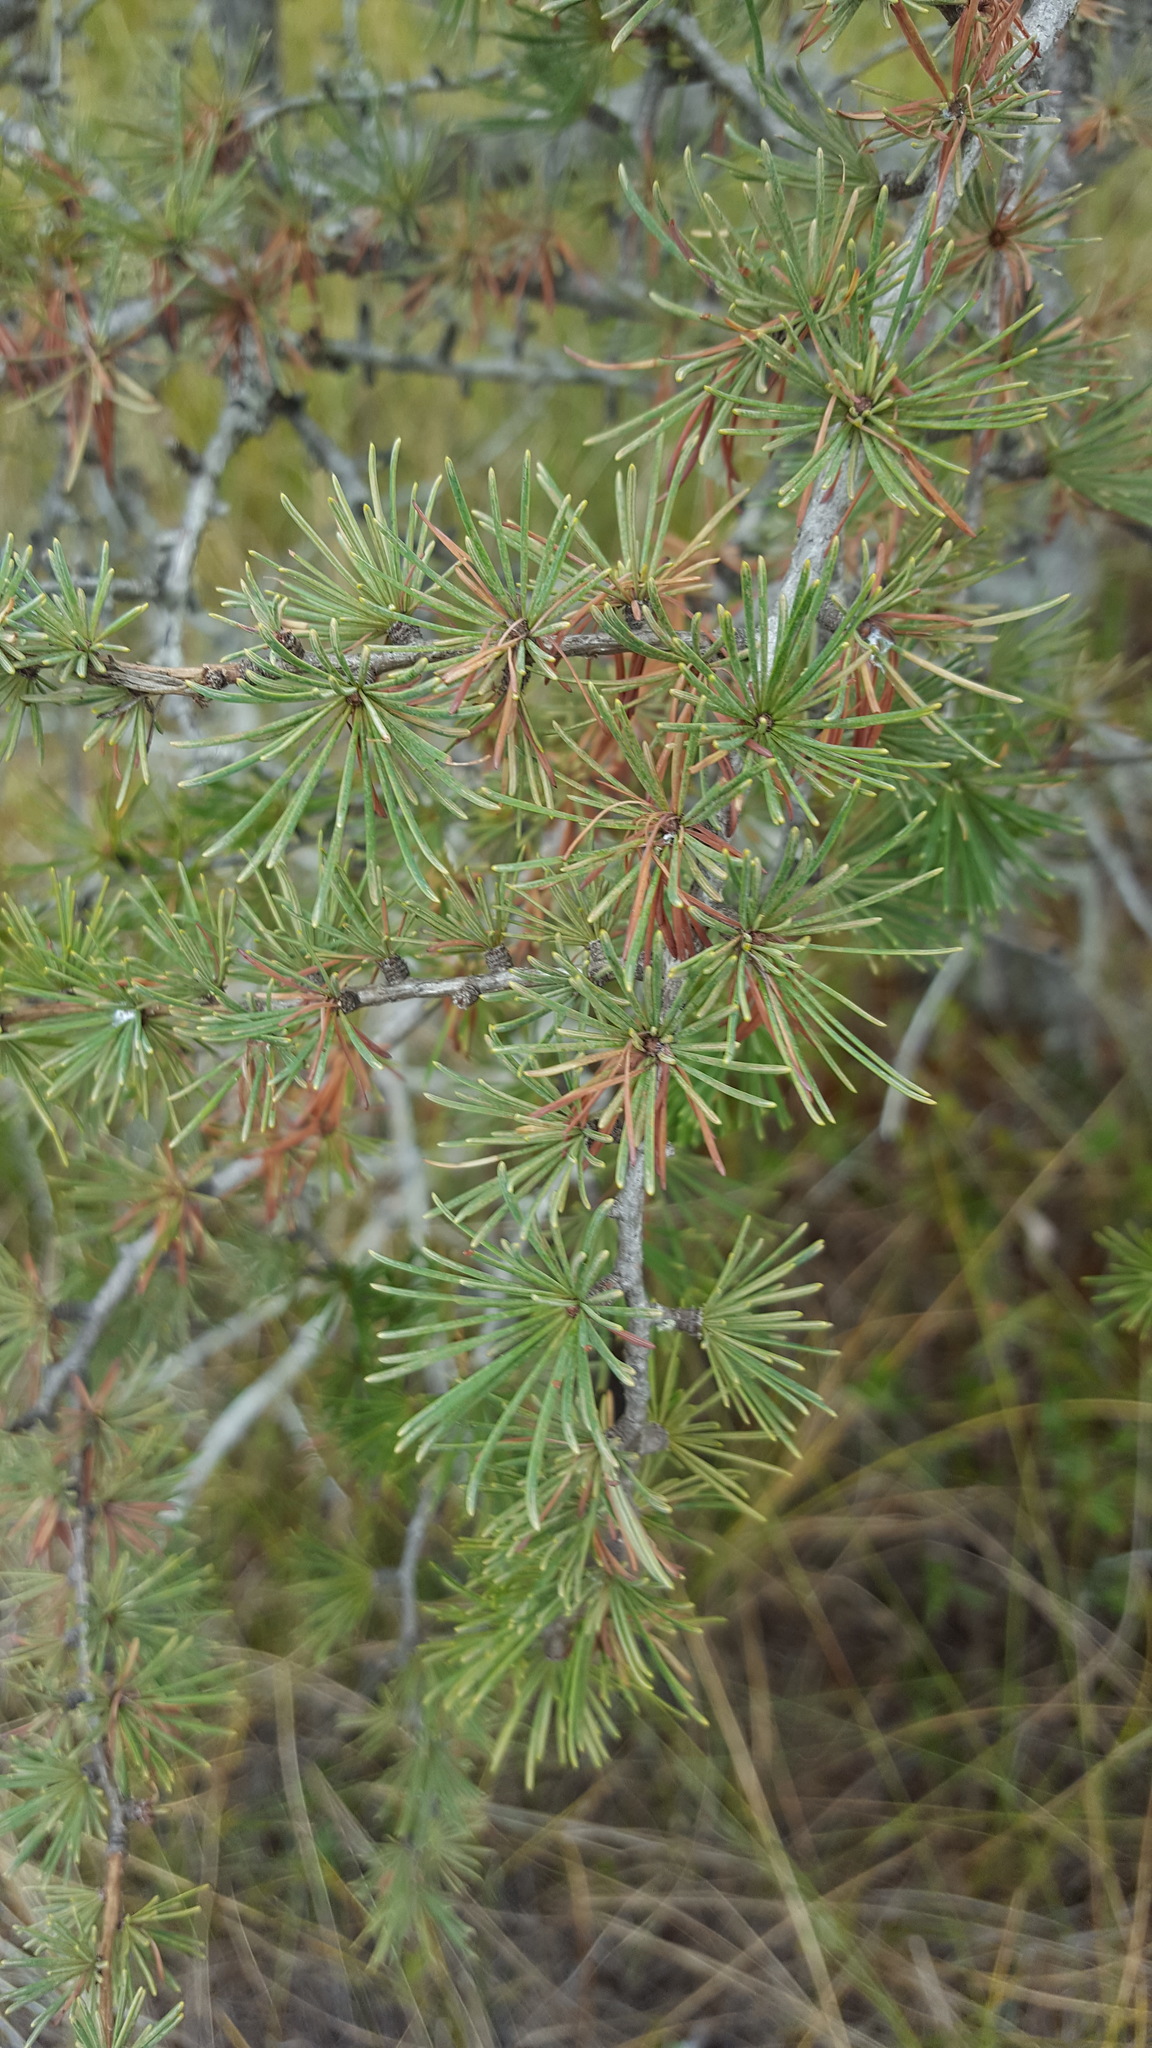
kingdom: Plantae
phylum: Tracheophyta
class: Pinopsida
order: Pinales
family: Pinaceae
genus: Larix
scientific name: Larix laricina
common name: American larch
